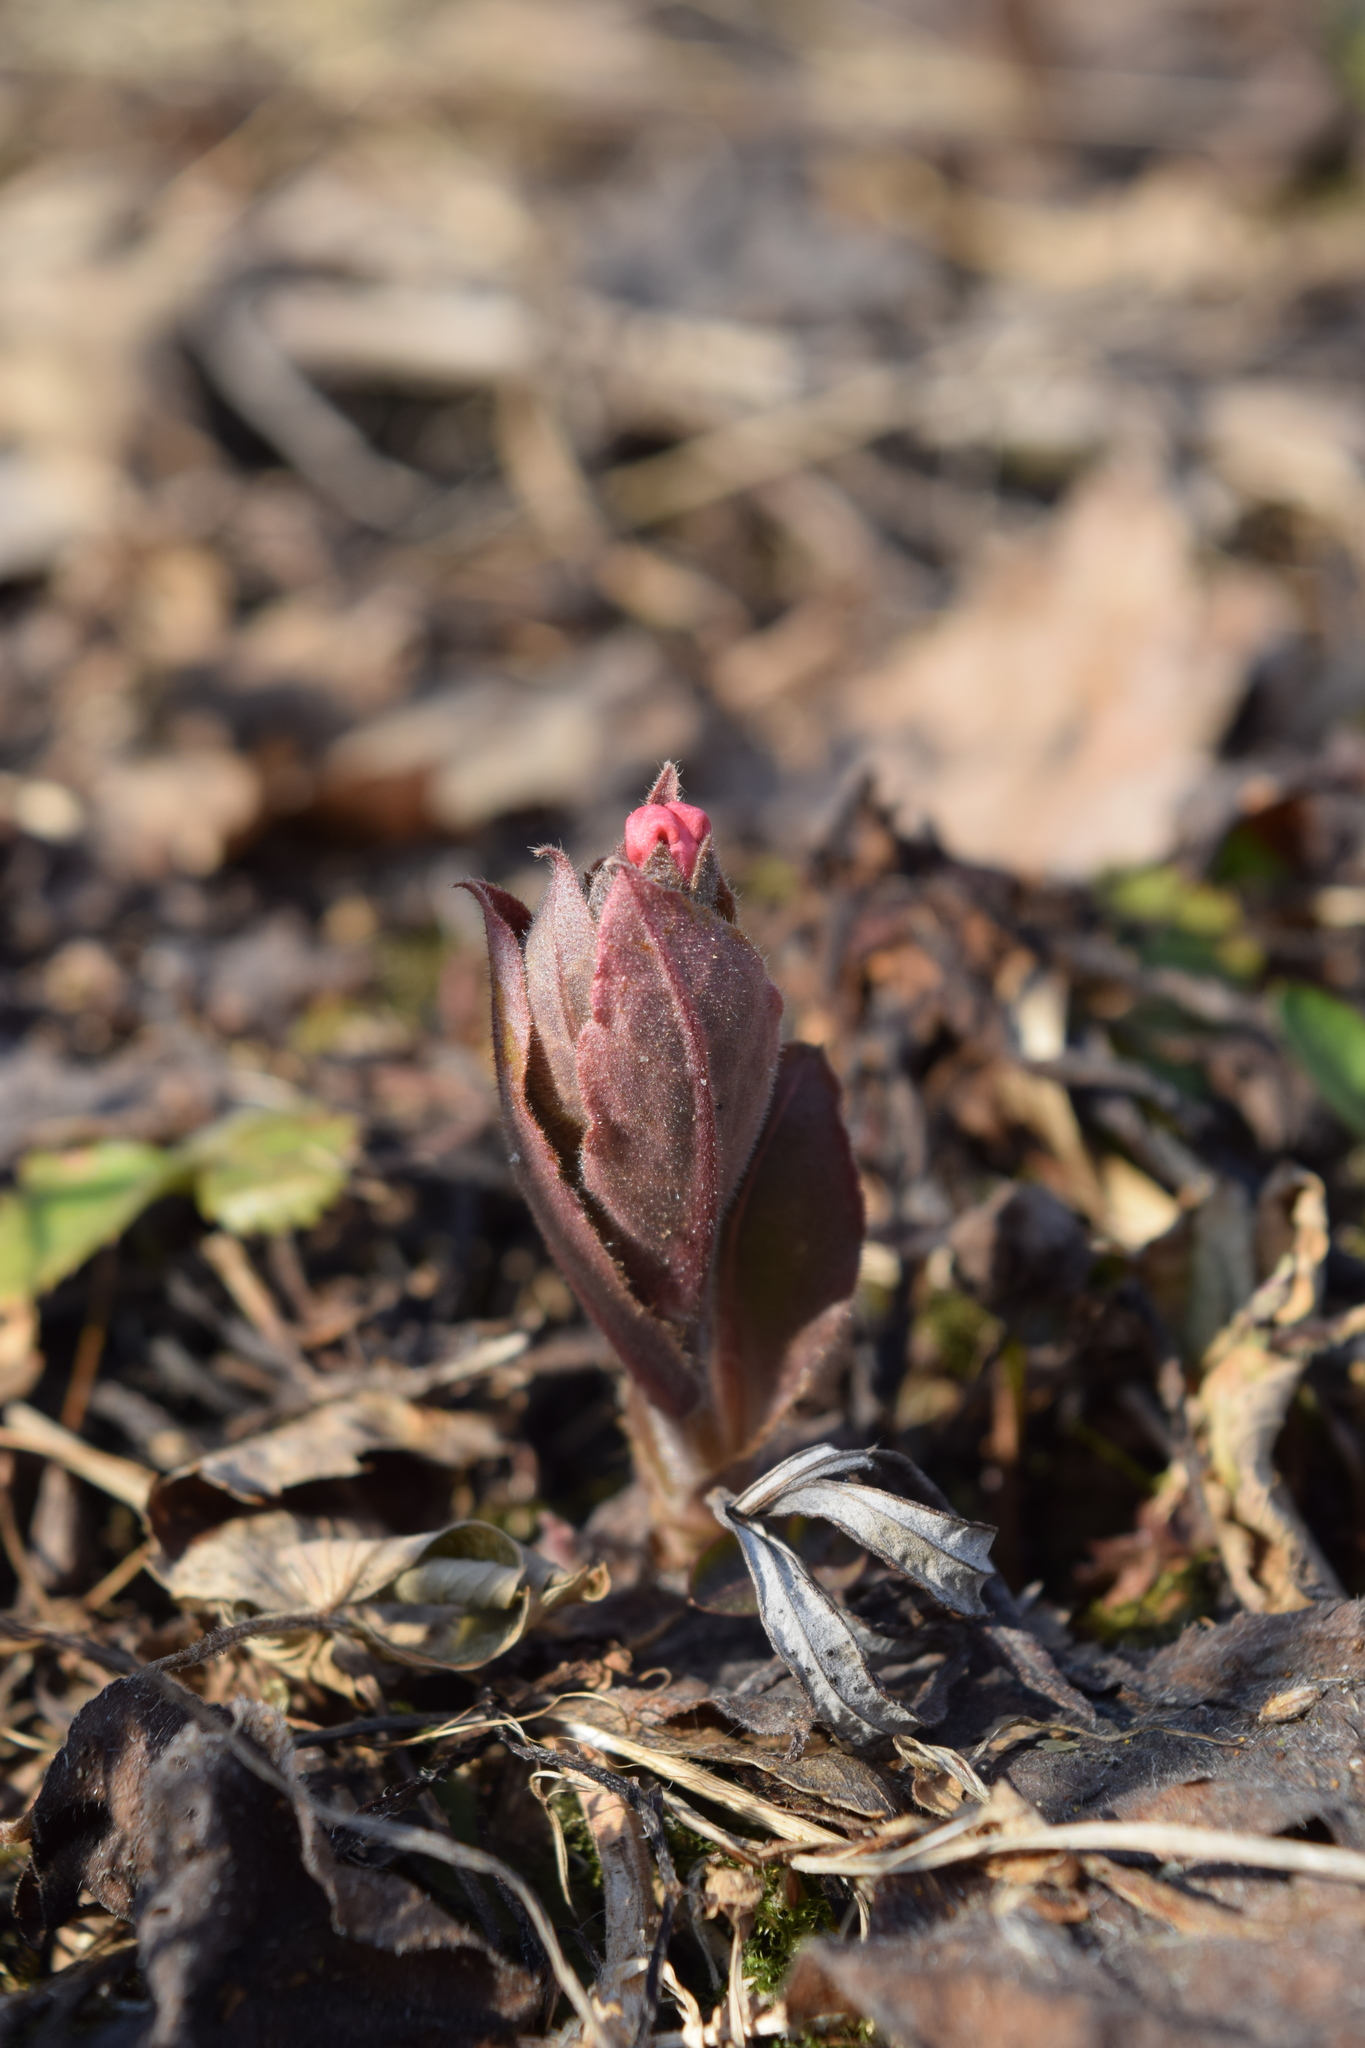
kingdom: Plantae
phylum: Tracheophyta
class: Magnoliopsida
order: Boraginales
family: Boraginaceae
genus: Pulmonaria
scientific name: Pulmonaria obscura
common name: Suffolk lungwort
